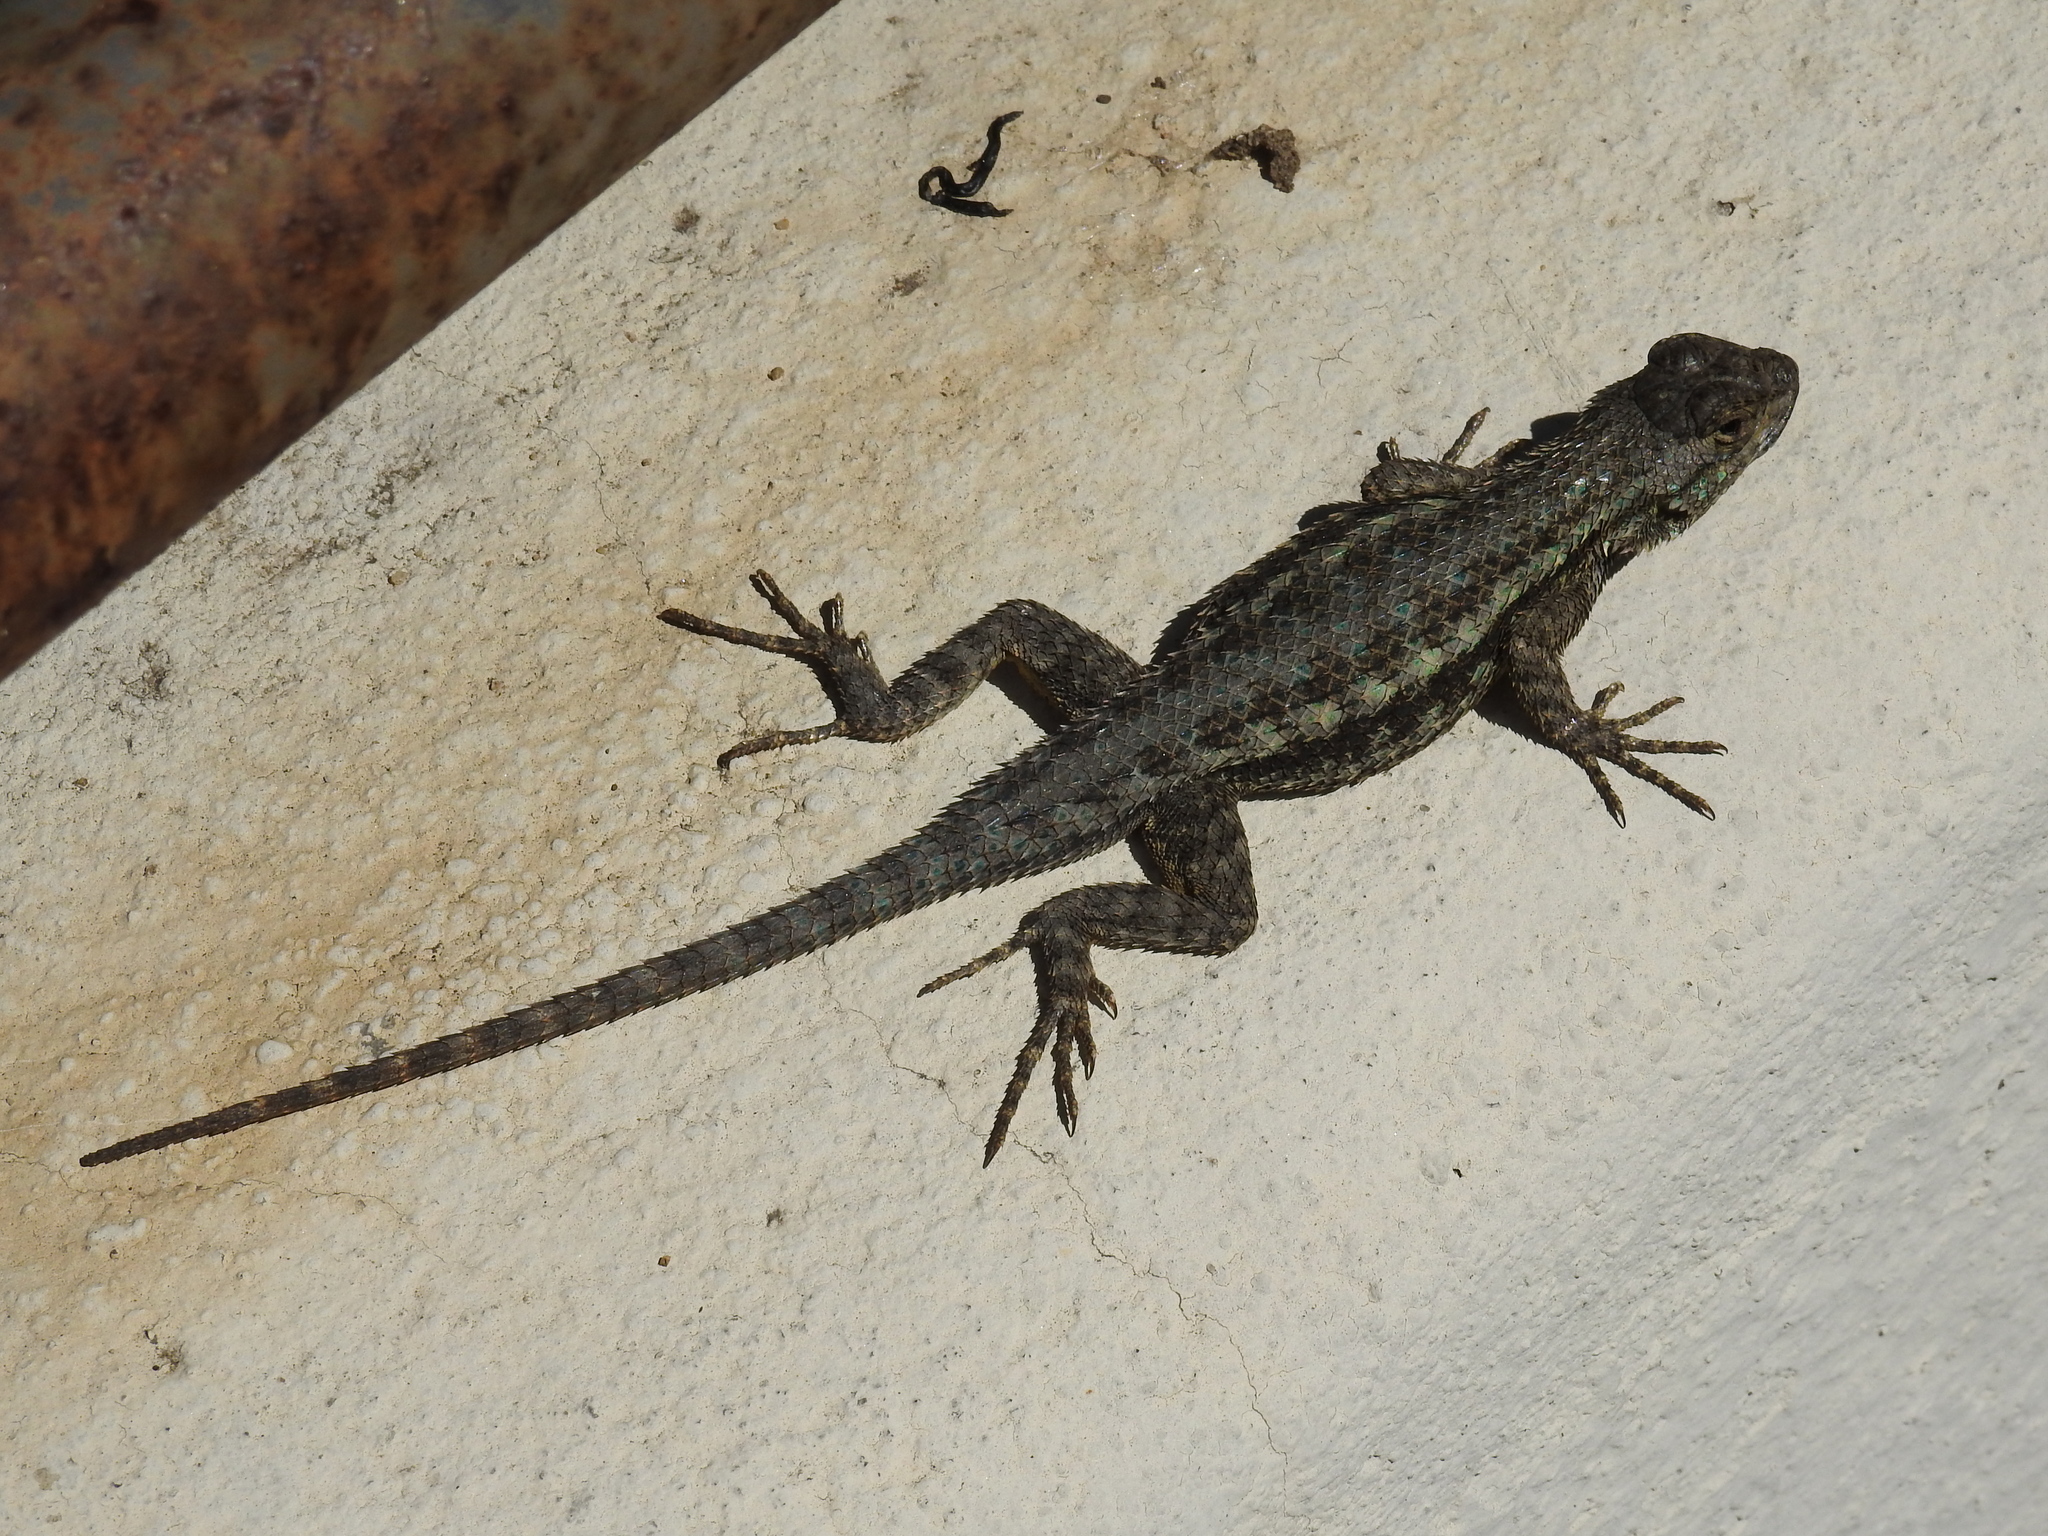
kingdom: Animalia
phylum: Chordata
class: Squamata
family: Phrynosomatidae
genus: Sceloporus
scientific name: Sceloporus occidentalis
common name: Western fence lizard
